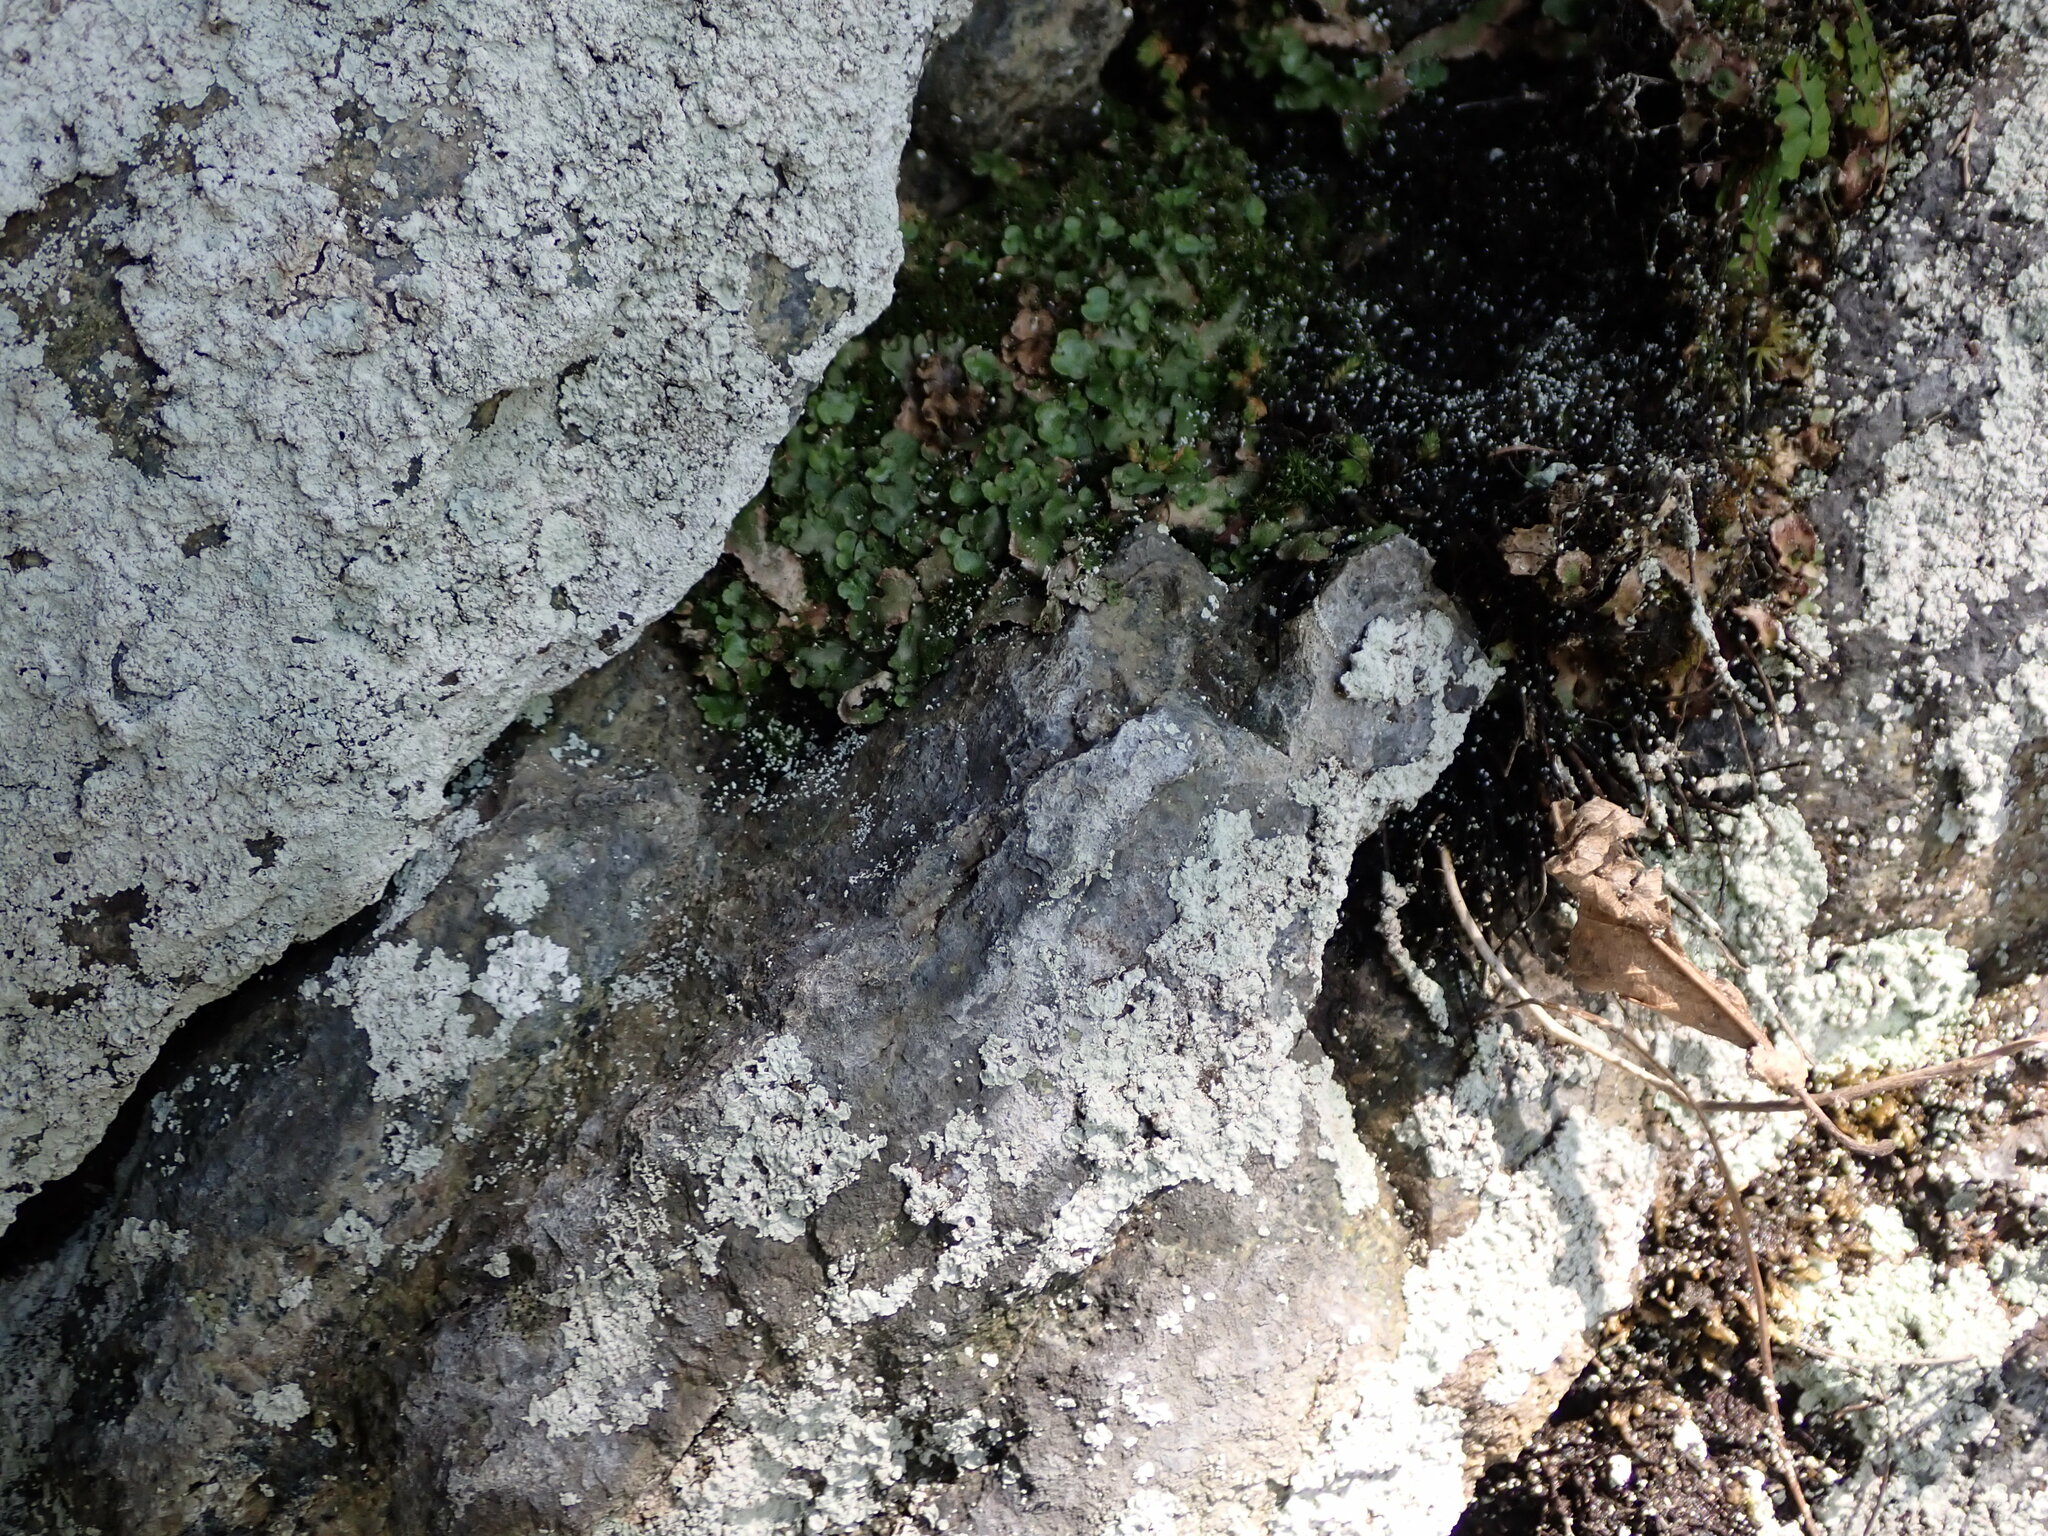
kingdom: Plantae
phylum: Marchantiophyta
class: Marchantiopsida
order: Marchantiales
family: Aytoniaceae
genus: Reboulia
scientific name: Reboulia hemisphaerica
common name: Purple-margined liverwort
